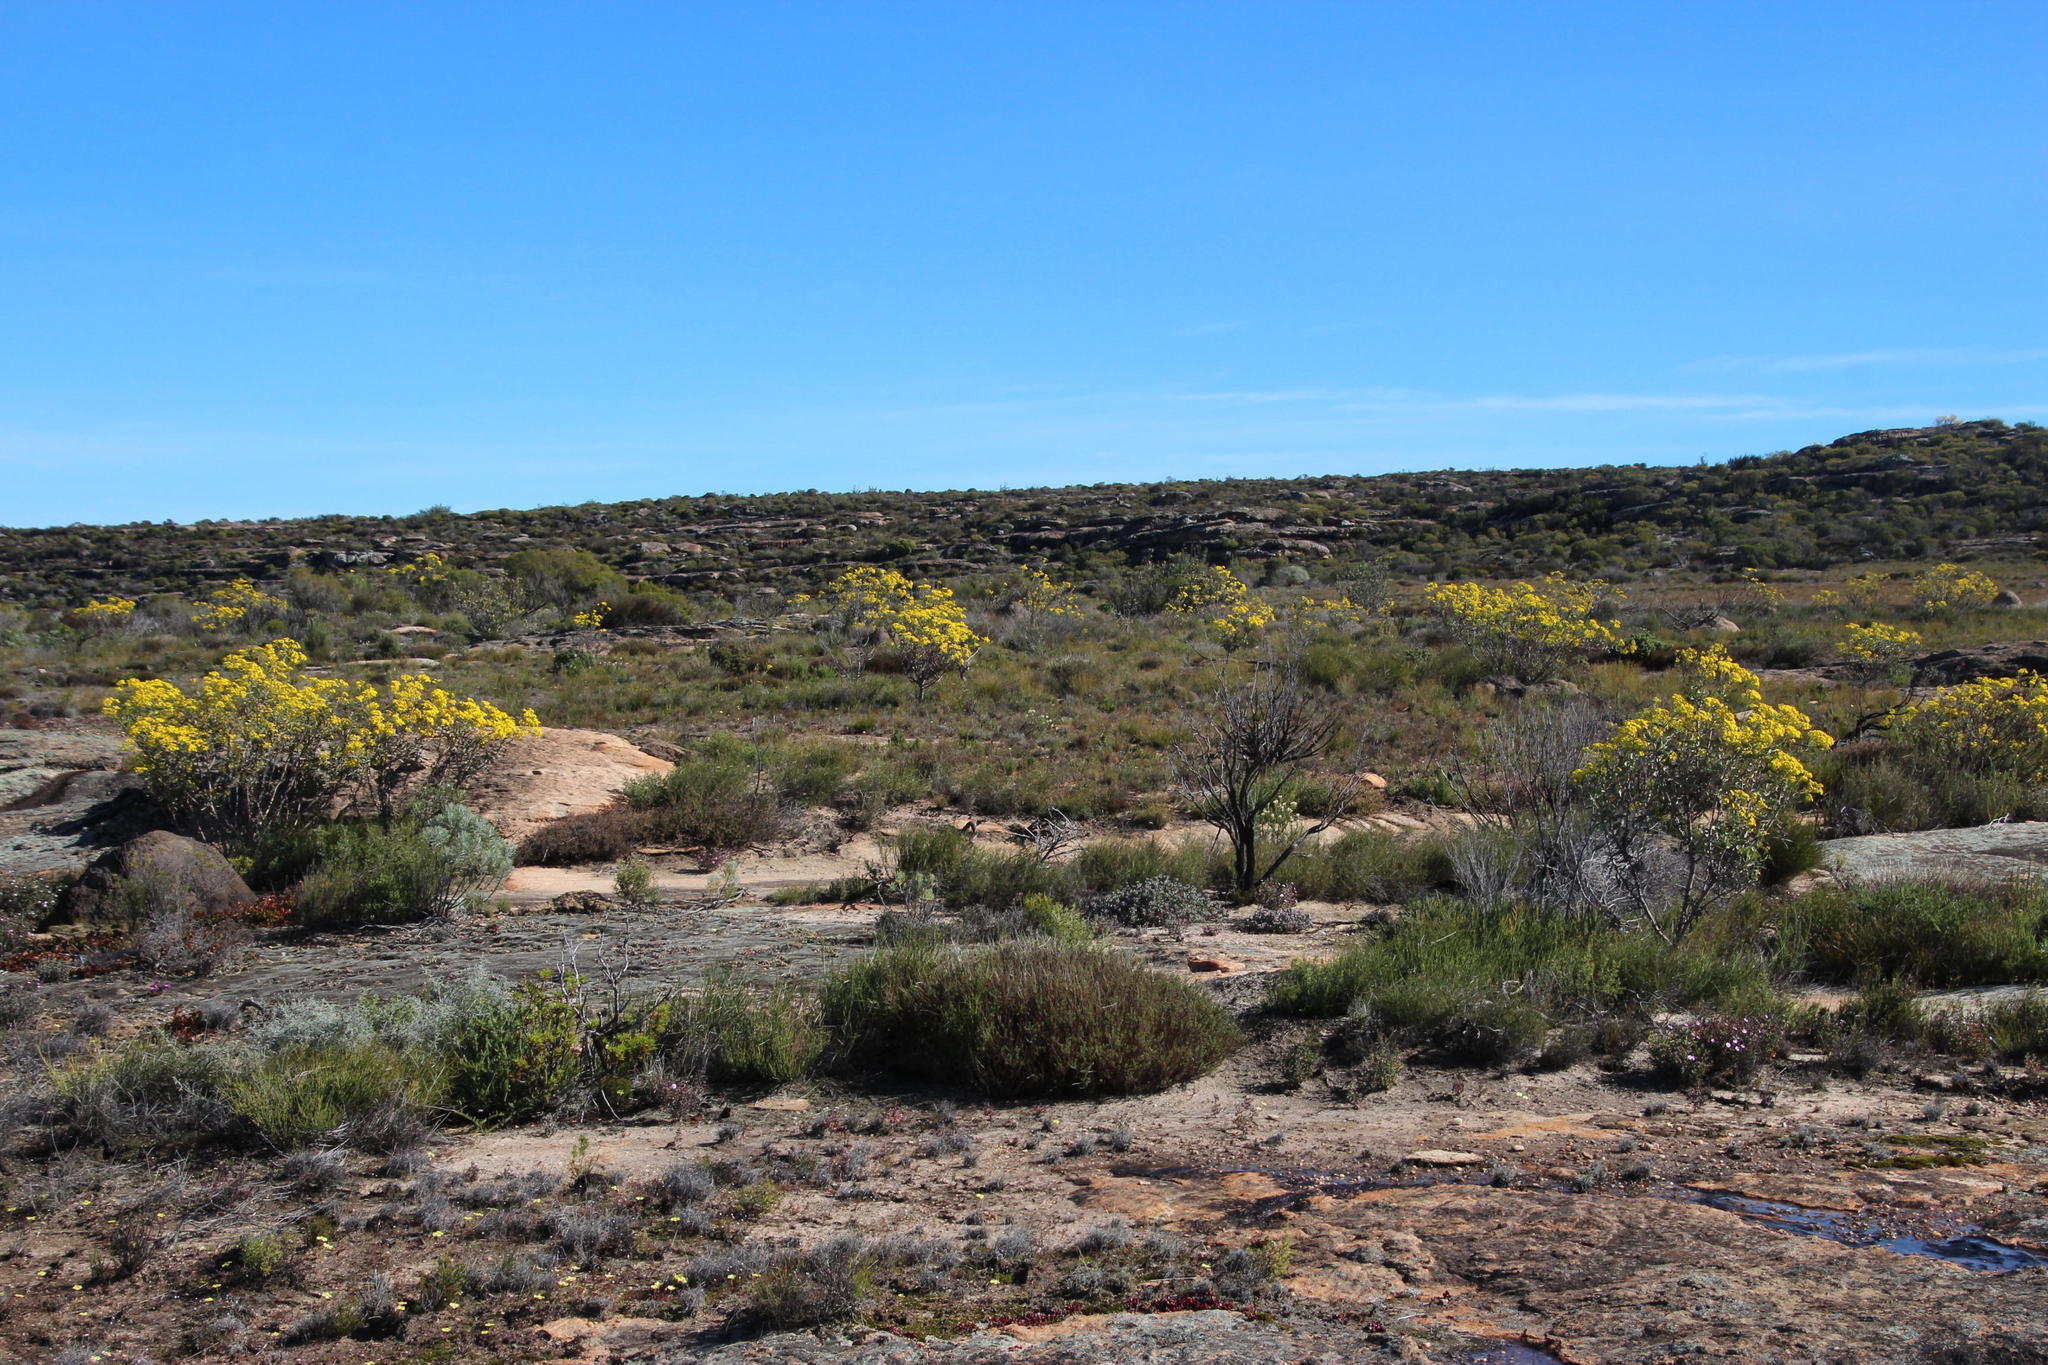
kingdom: Plantae
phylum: Tracheophyta
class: Magnoliopsida
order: Asterales
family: Asteraceae
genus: Othonna
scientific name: Othonna parviflora
